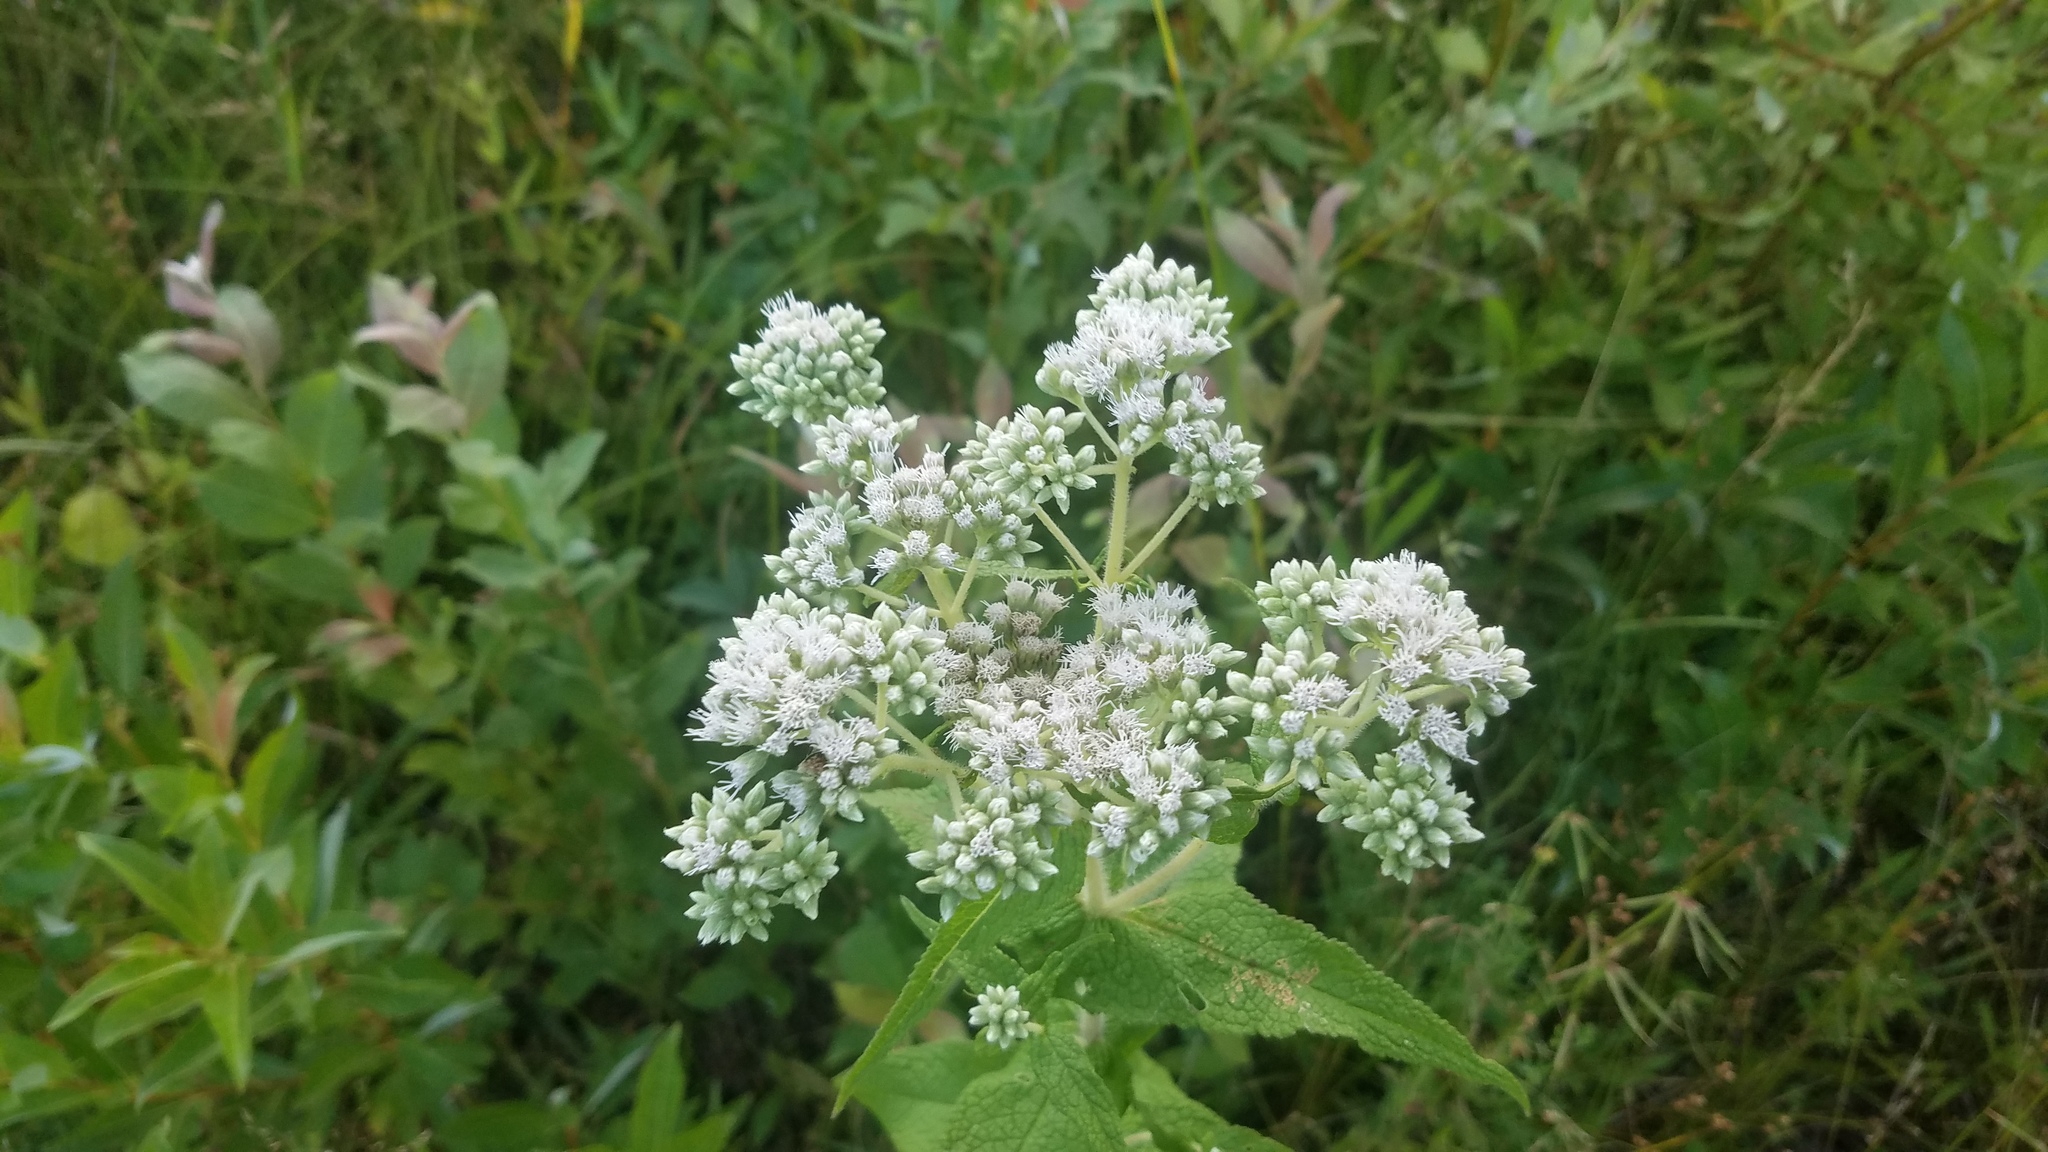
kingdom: Plantae
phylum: Tracheophyta
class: Magnoliopsida
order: Asterales
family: Asteraceae
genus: Eupatorium
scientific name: Eupatorium perfoliatum
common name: Boneset
